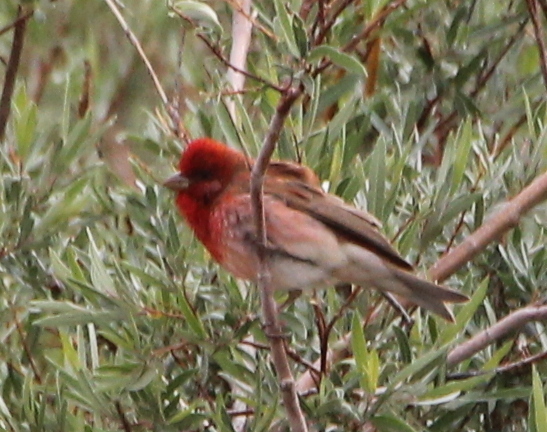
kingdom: Animalia
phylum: Chordata
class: Aves
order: Passeriformes
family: Fringillidae
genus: Carpodacus
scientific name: Carpodacus erythrinus
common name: Common rosefinch
